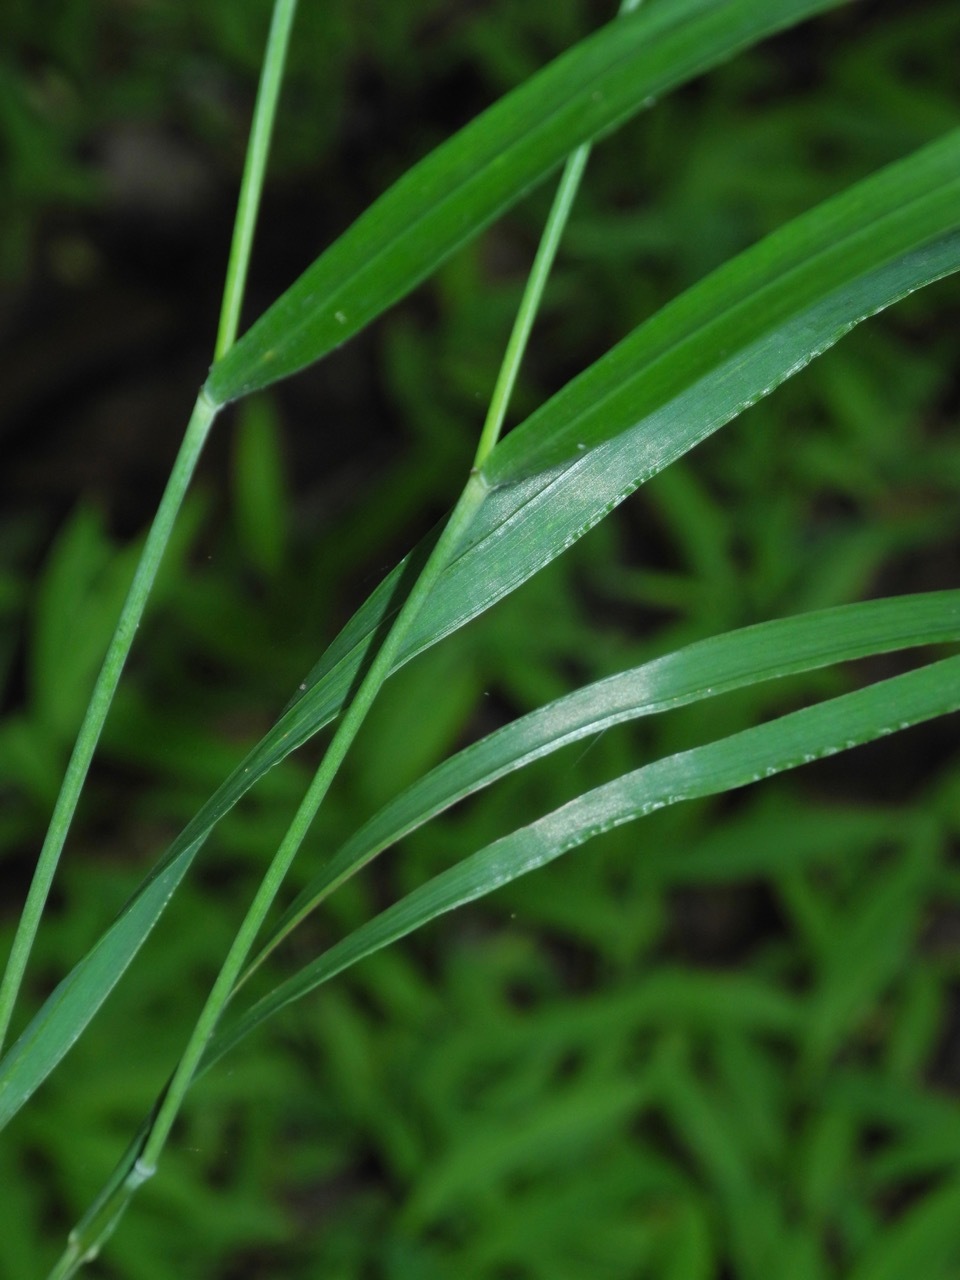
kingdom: Plantae
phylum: Tracheophyta
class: Liliopsida
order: Poales
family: Poaceae
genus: Elymus
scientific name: Elymus hystrix
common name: Bottlebrush grass
